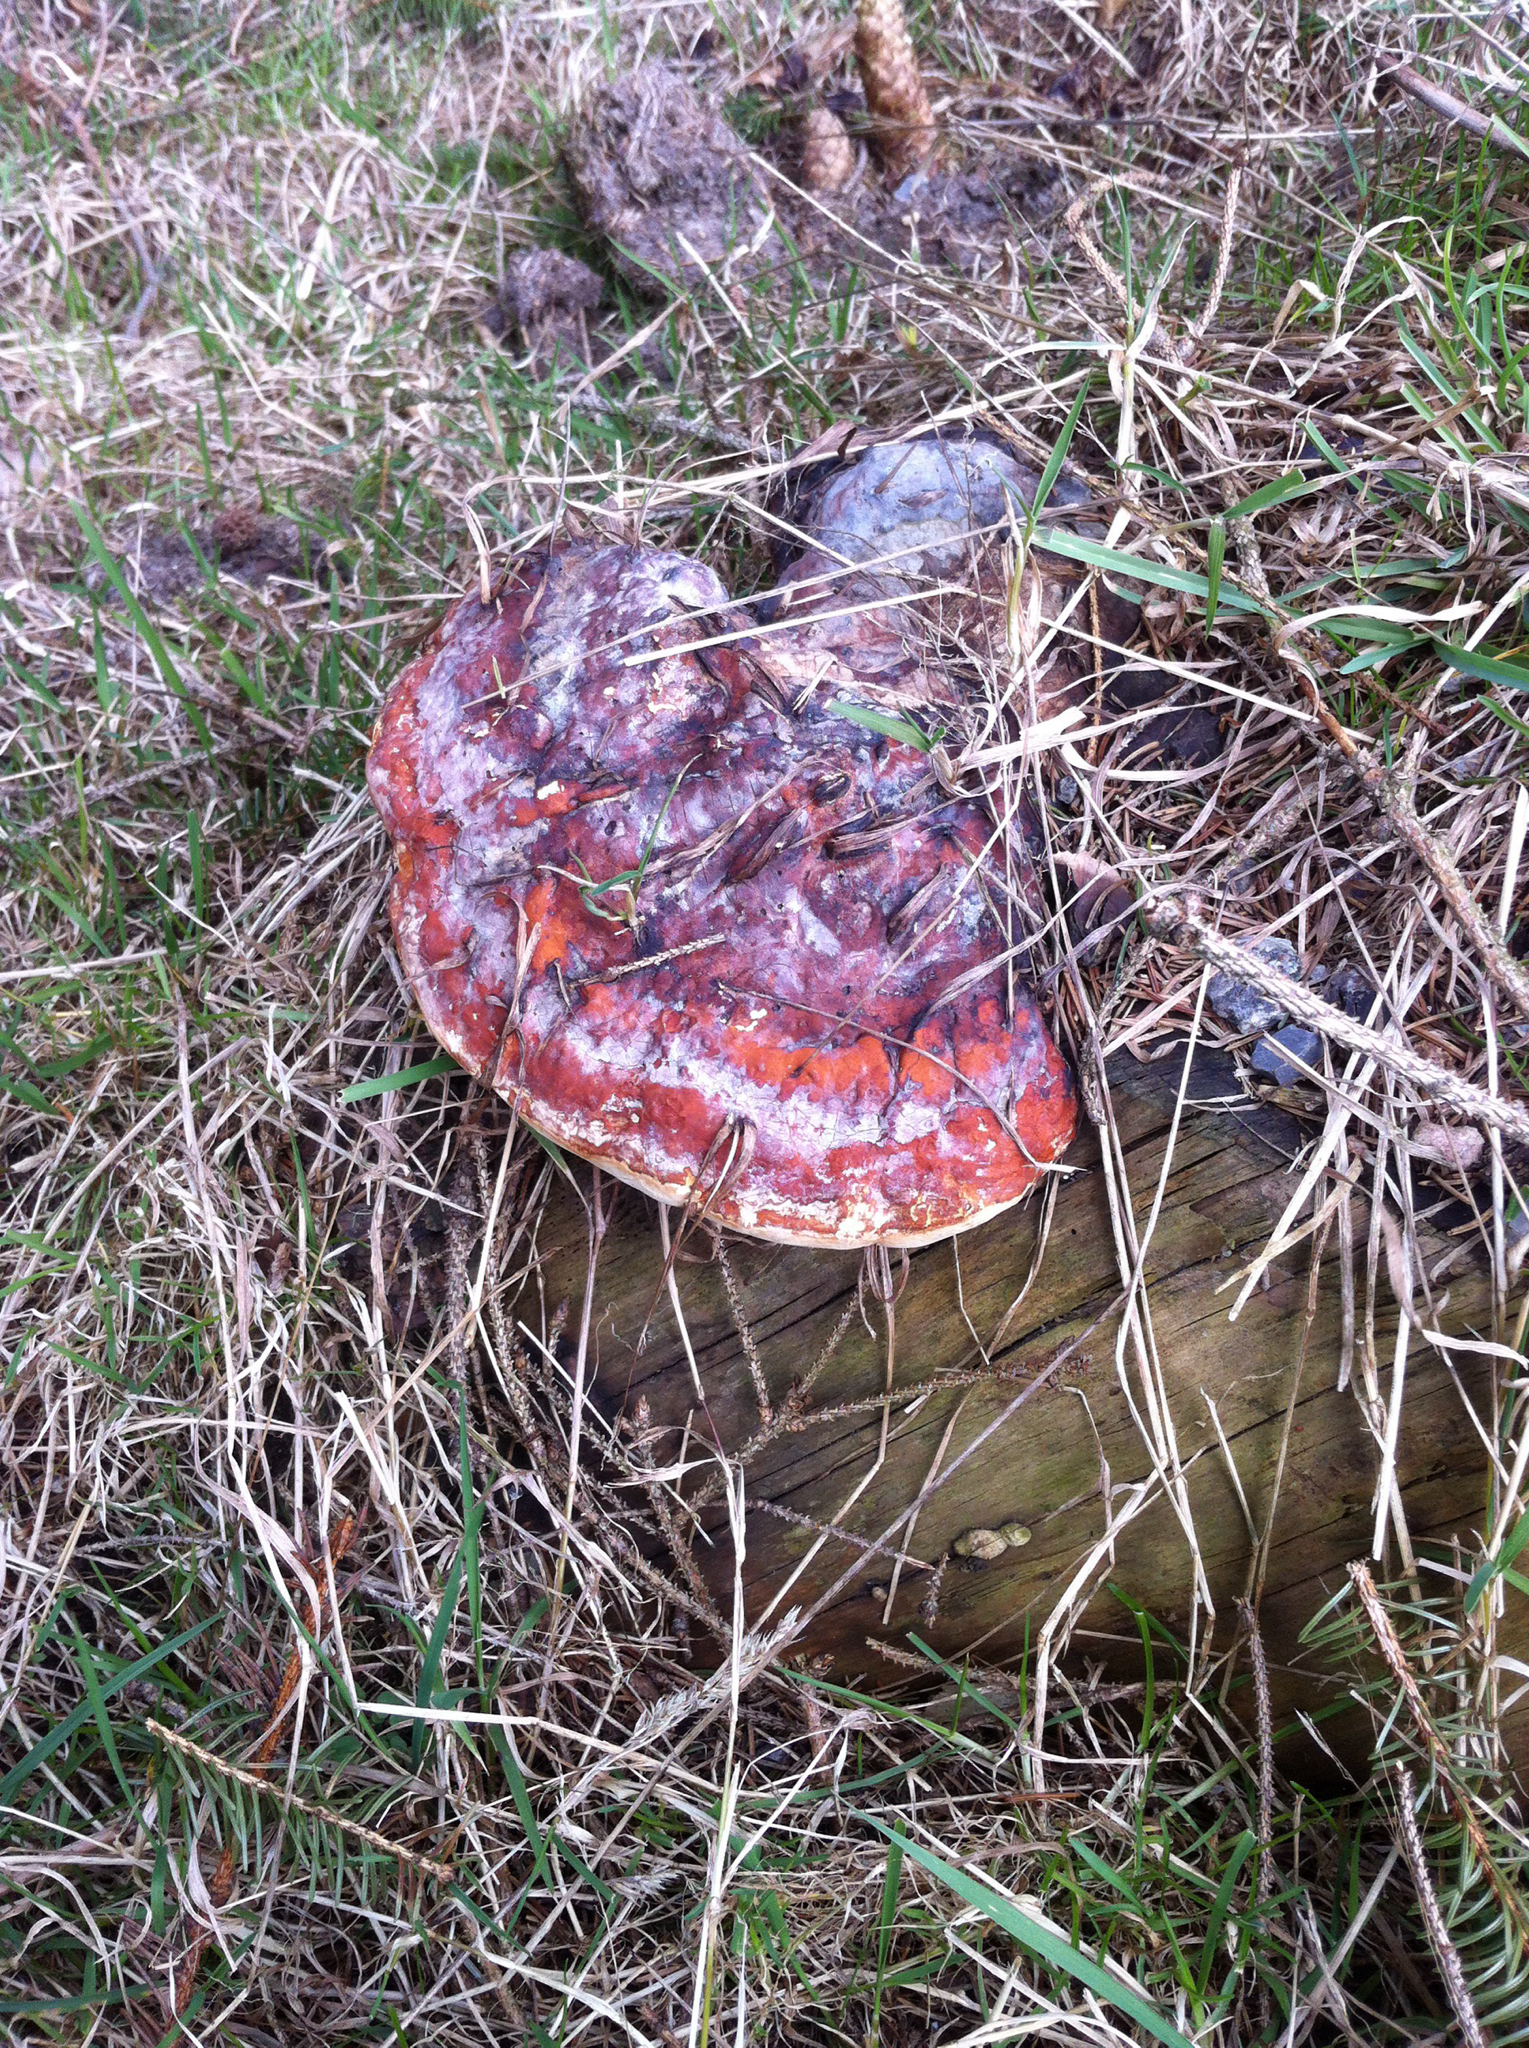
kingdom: Fungi
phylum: Basidiomycota
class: Agaricomycetes
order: Polyporales
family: Fomitopsidaceae
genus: Fomitopsis
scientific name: Fomitopsis pinicola
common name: Red-belted bracket
